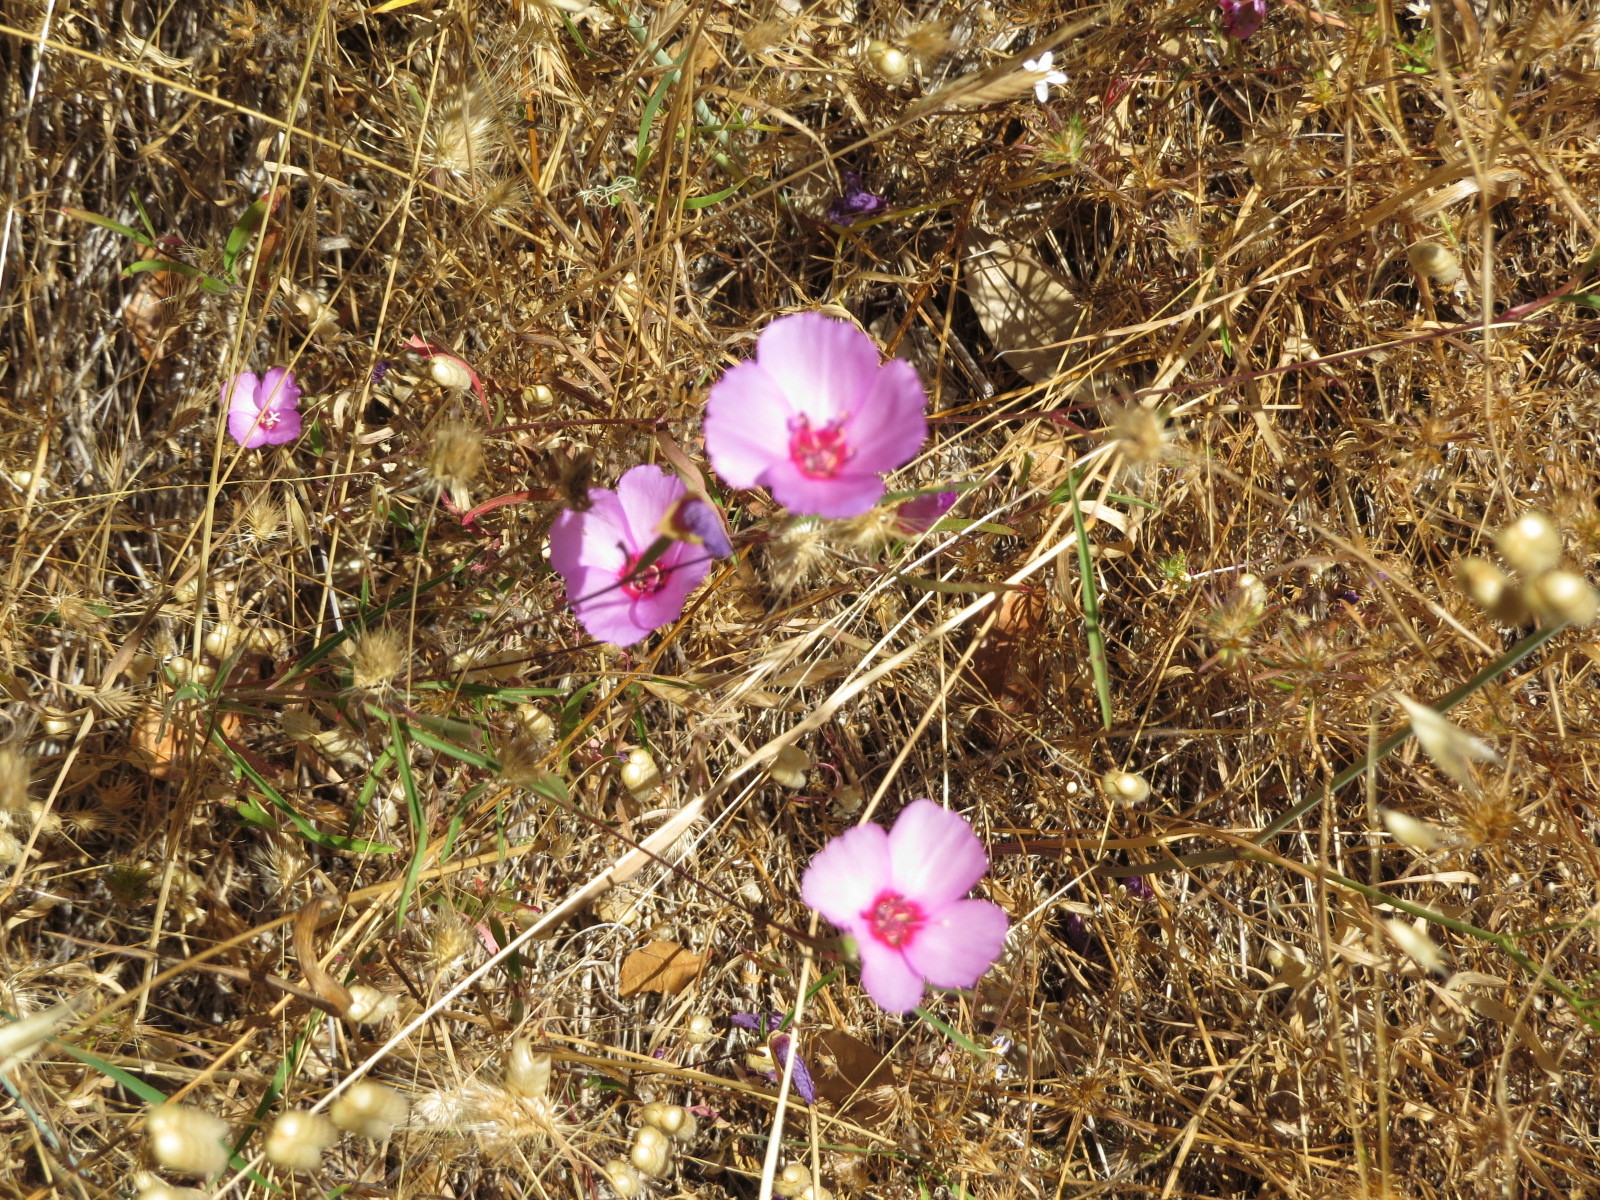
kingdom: Plantae
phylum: Tracheophyta
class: Magnoliopsida
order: Myrtales
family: Onagraceae
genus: Clarkia
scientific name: Clarkia rubicunda
